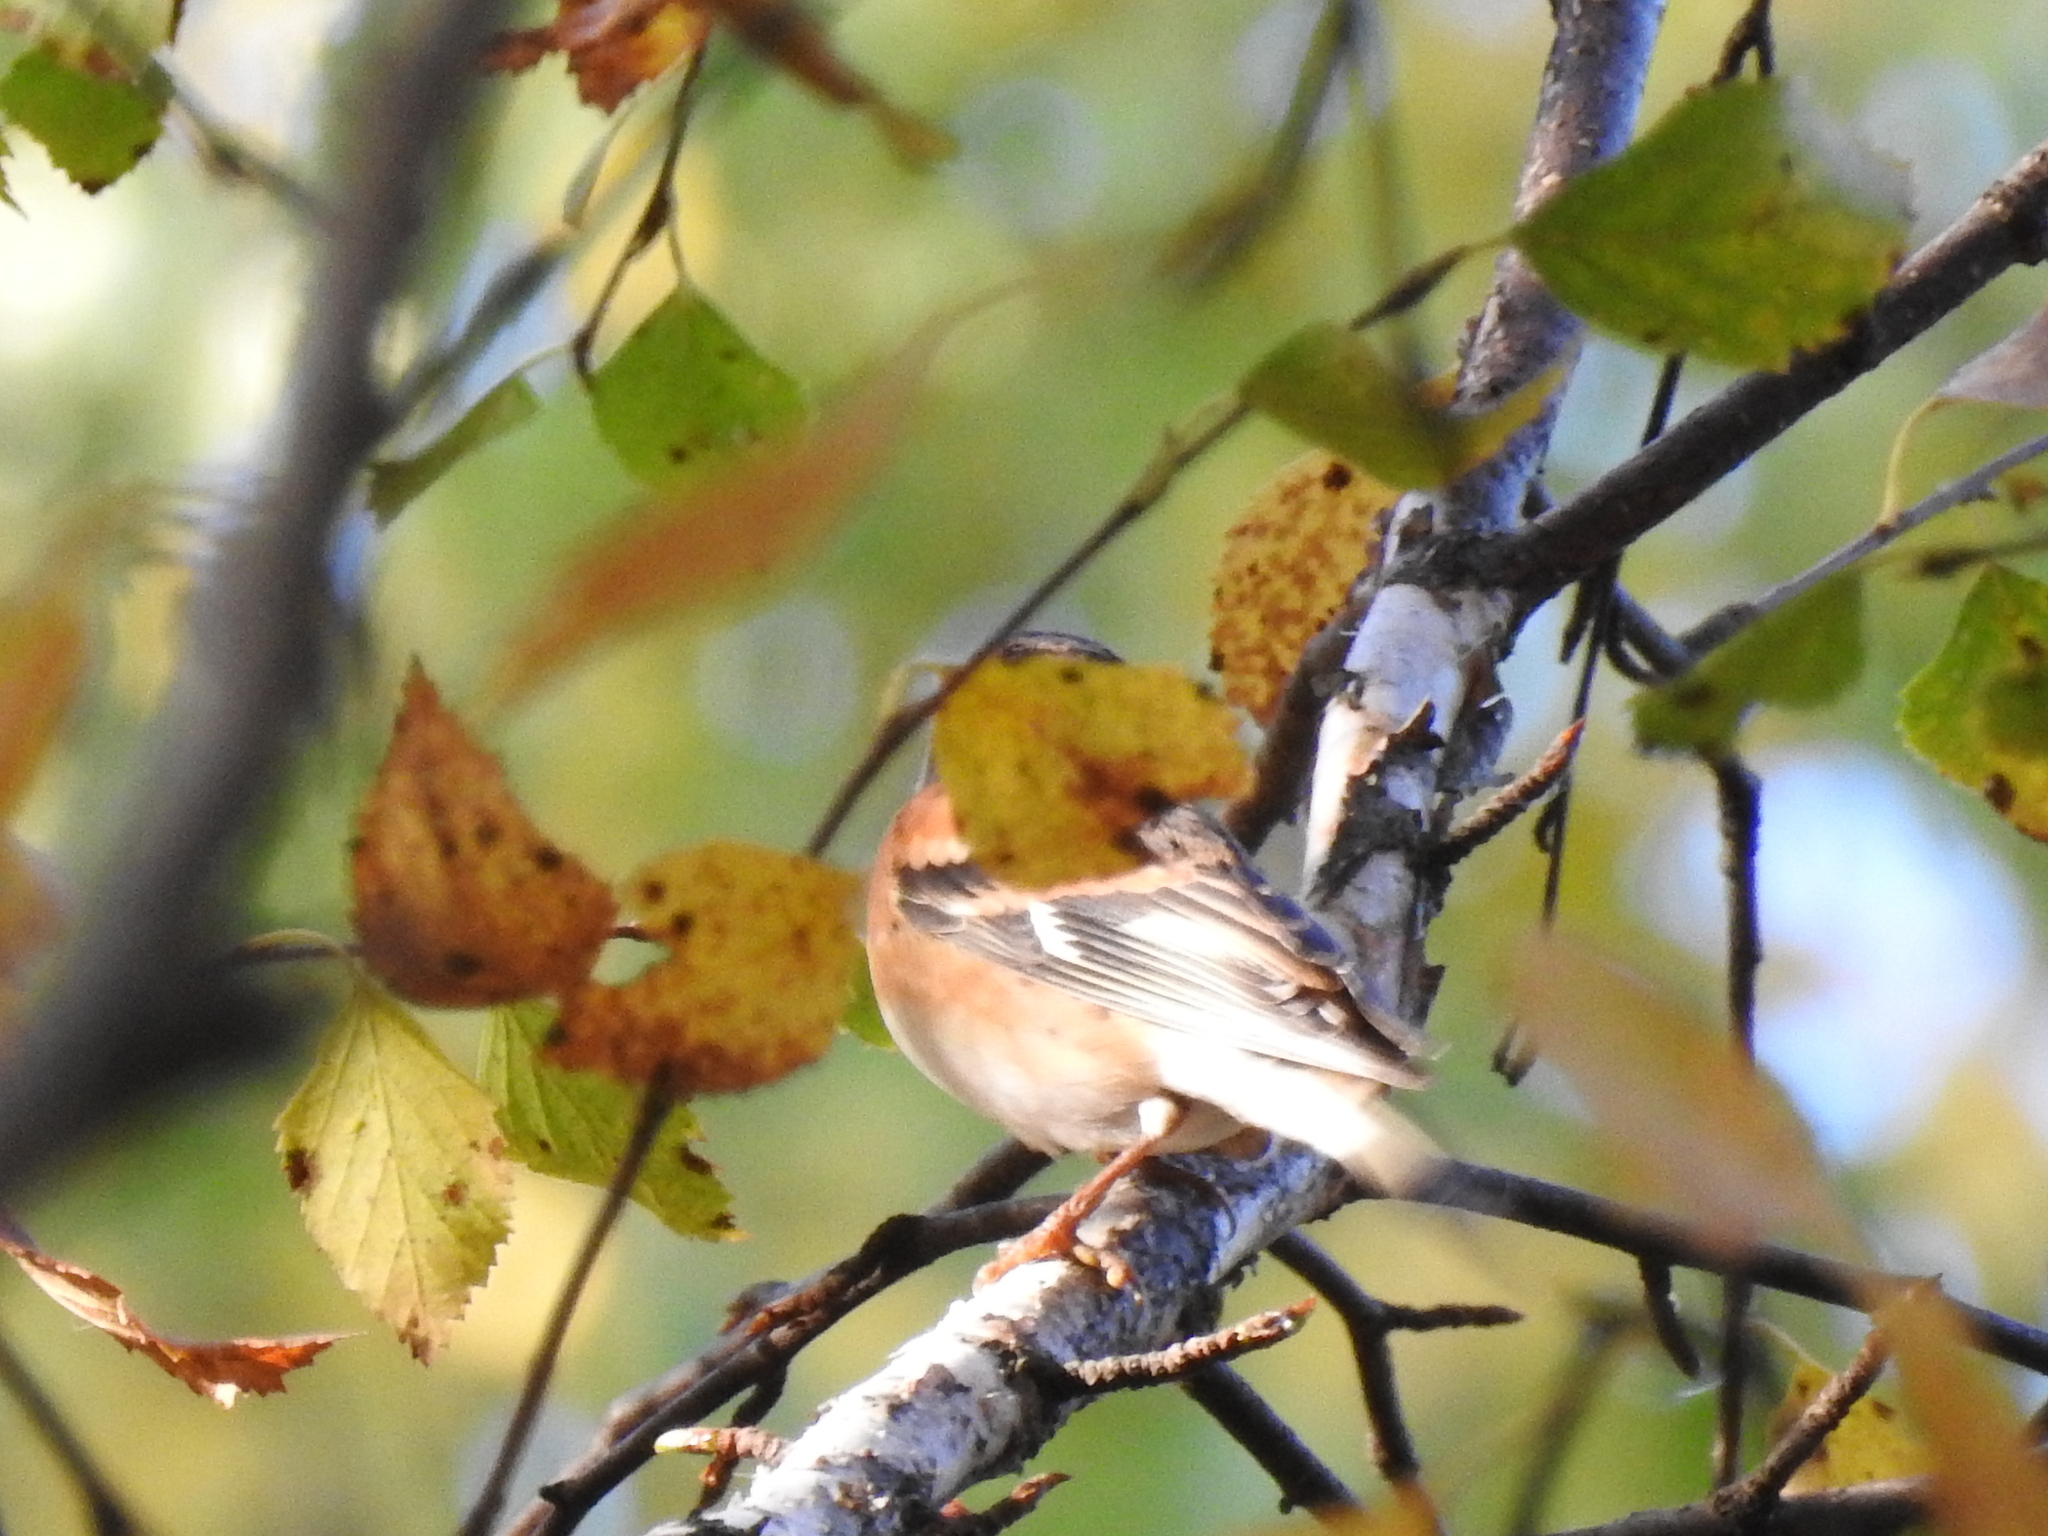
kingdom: Animalia
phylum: Chordata
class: Aves
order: Passeriformes
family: Fringillidae
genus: Fringilla
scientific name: Fringilla montifringilla
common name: Brambling
